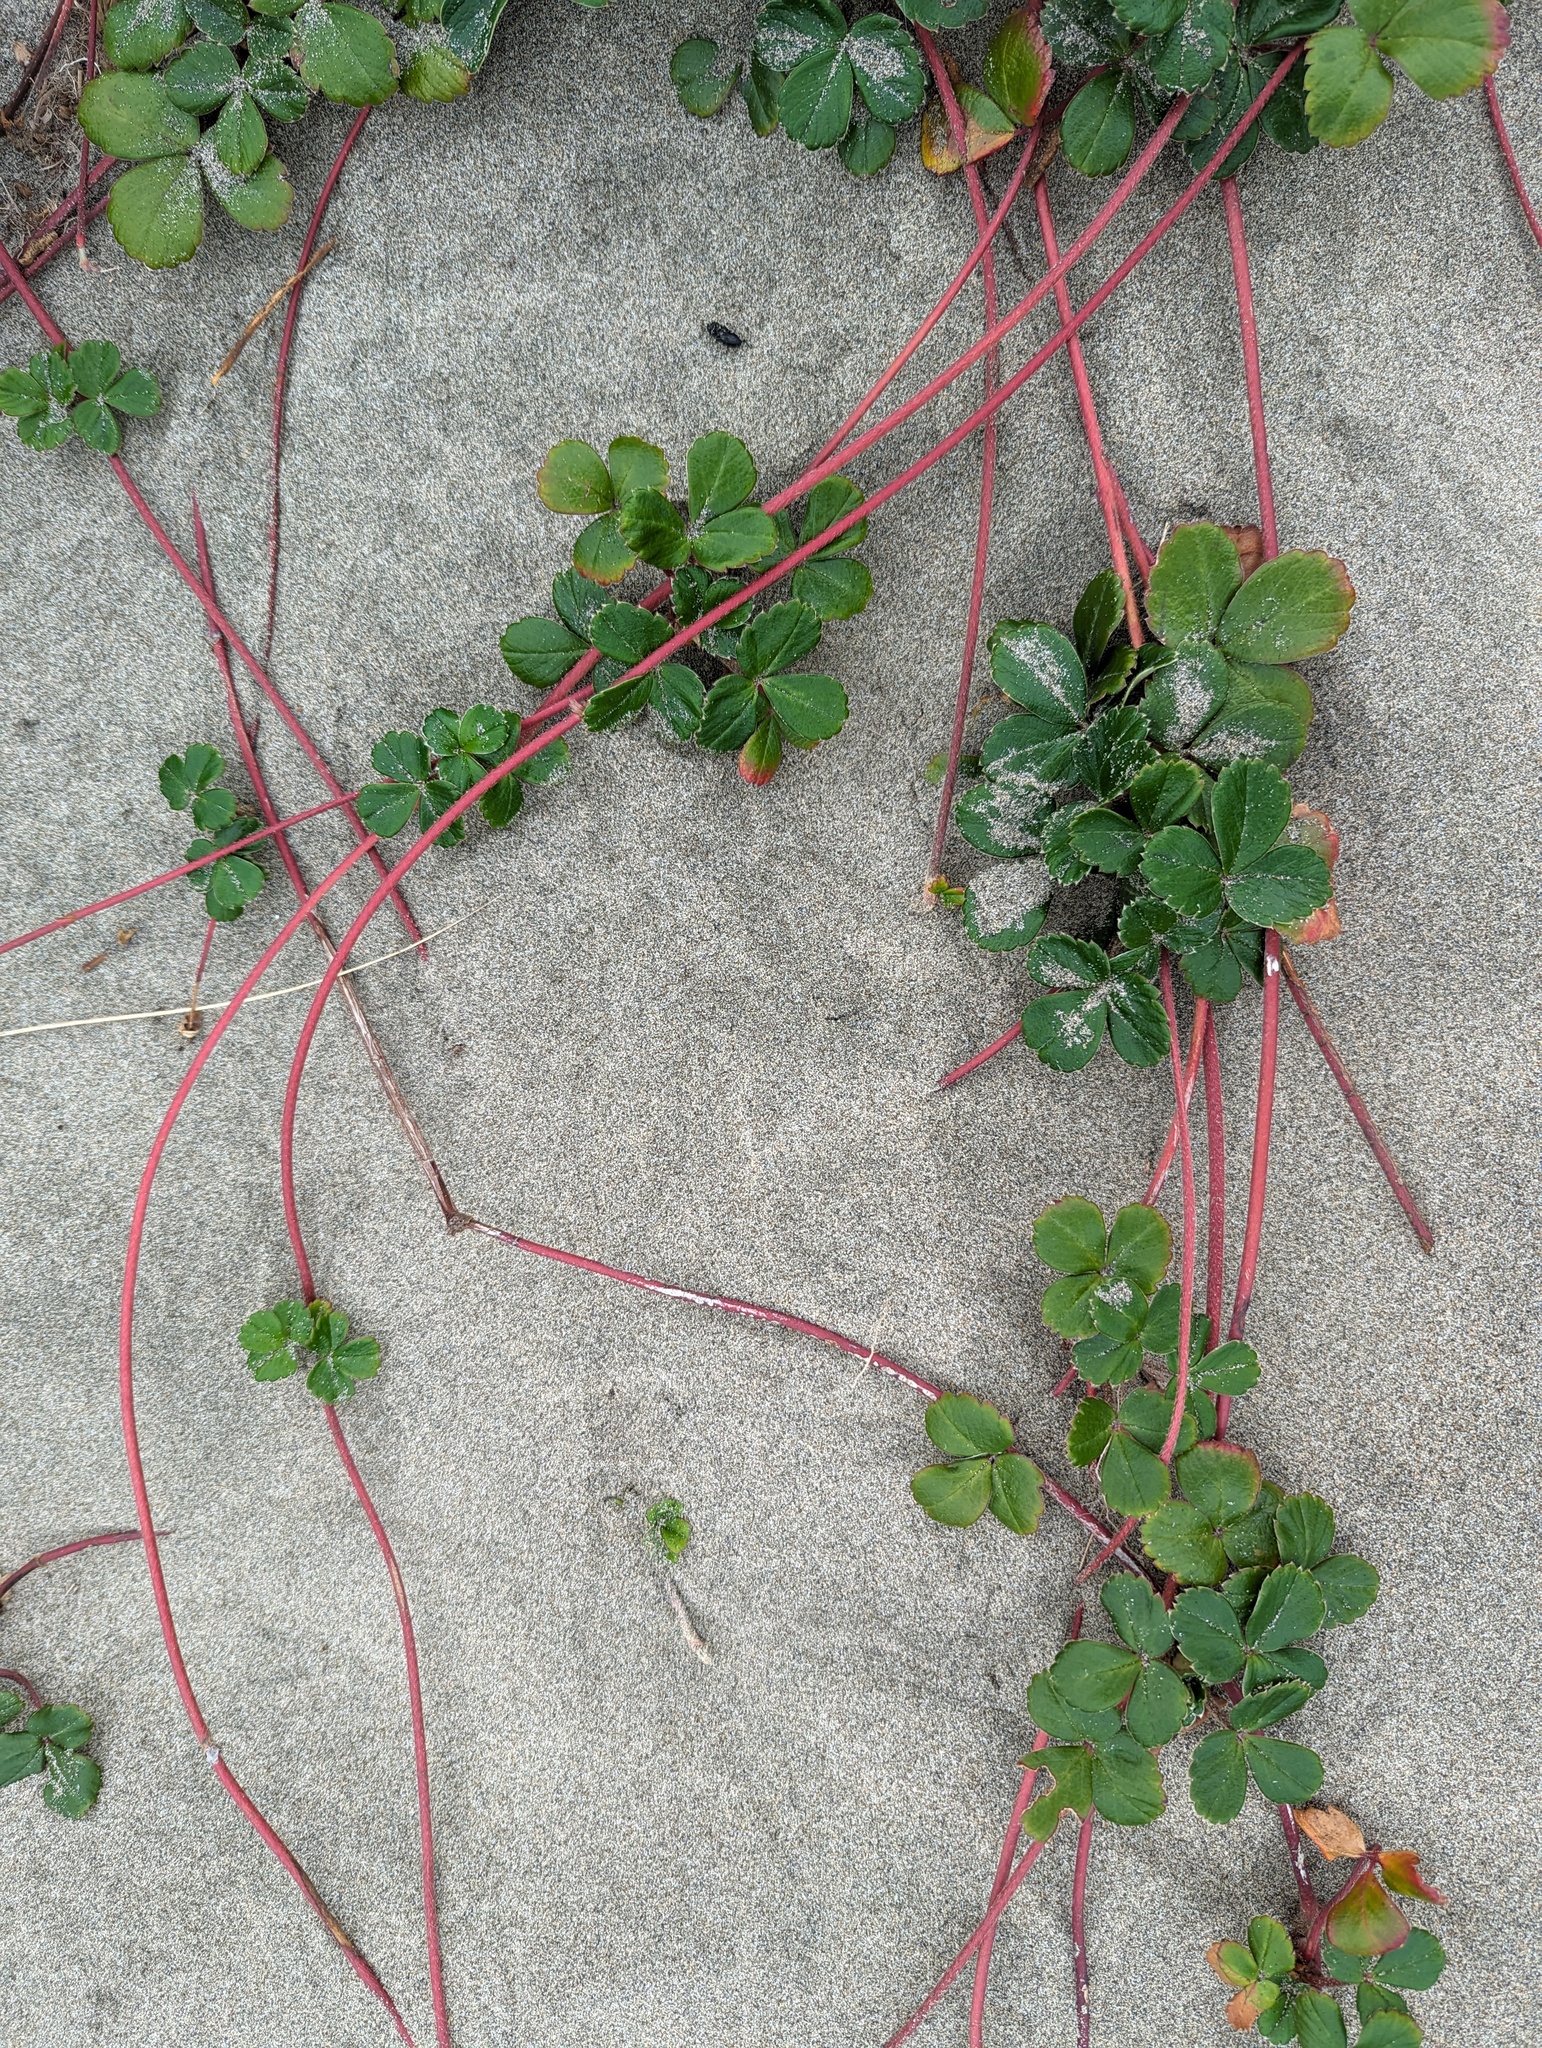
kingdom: Plantae
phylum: Tracheophyta
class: Magnoliopsida
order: Rosales
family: Rosaceae
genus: Fragaria
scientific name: Fragaria chiloensis
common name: Beach strawberry
